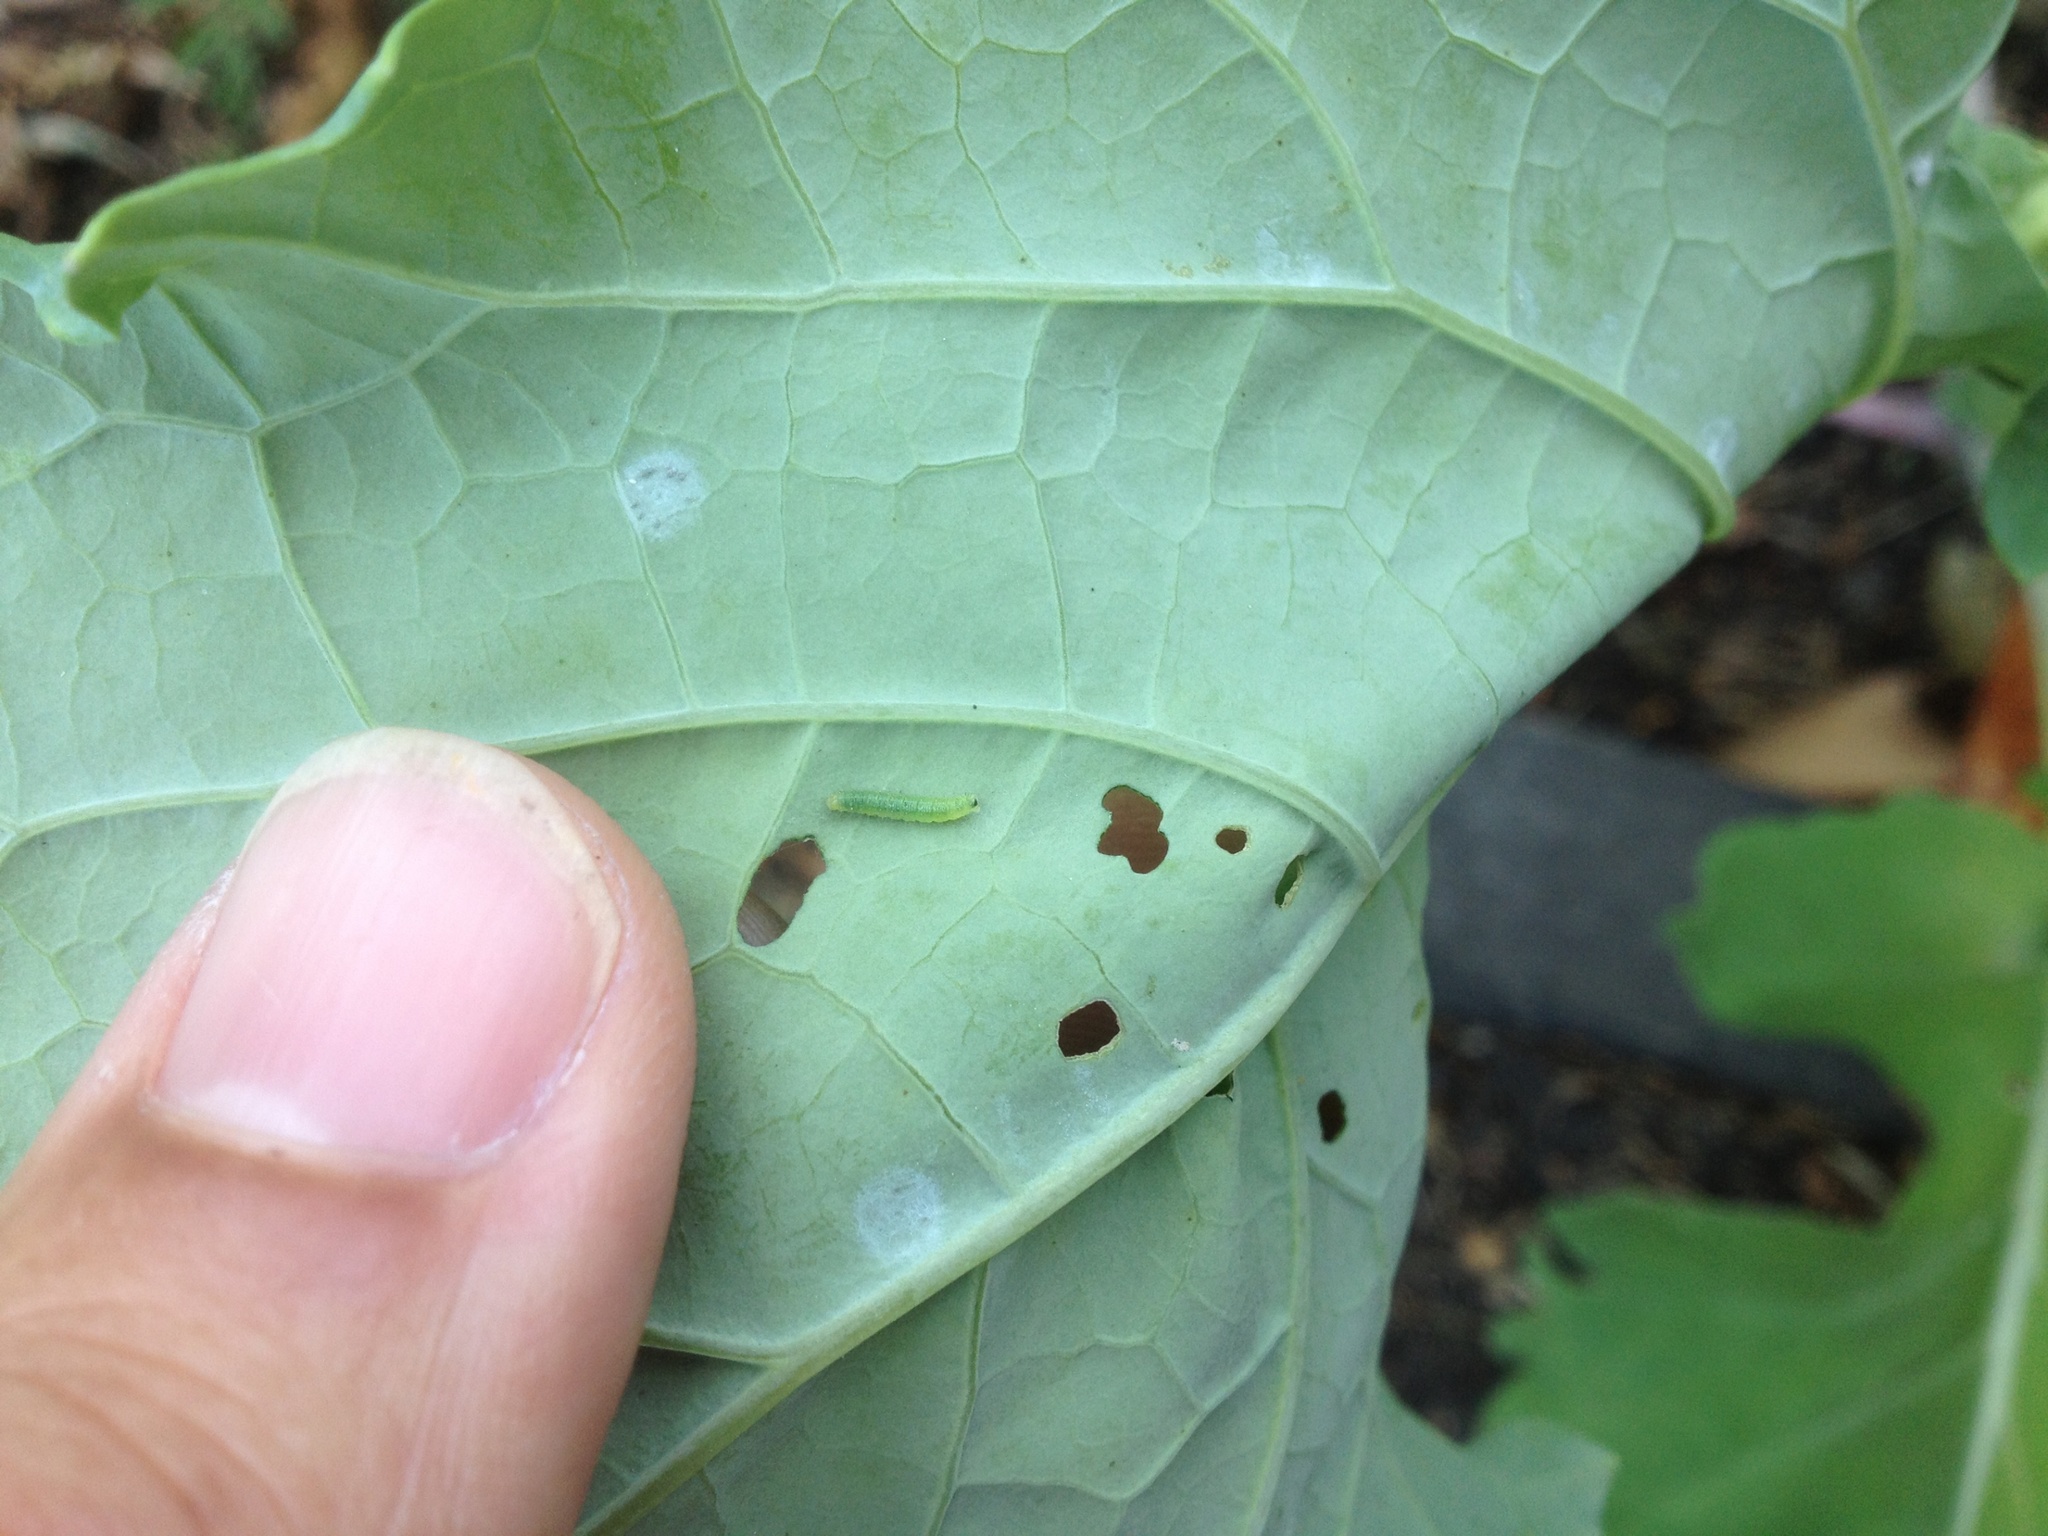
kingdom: Animalia
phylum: Arthropoda
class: Insecta
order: Lepidoptera
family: Pieridae
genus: Pieris
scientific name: Pieris rapae
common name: Small white
